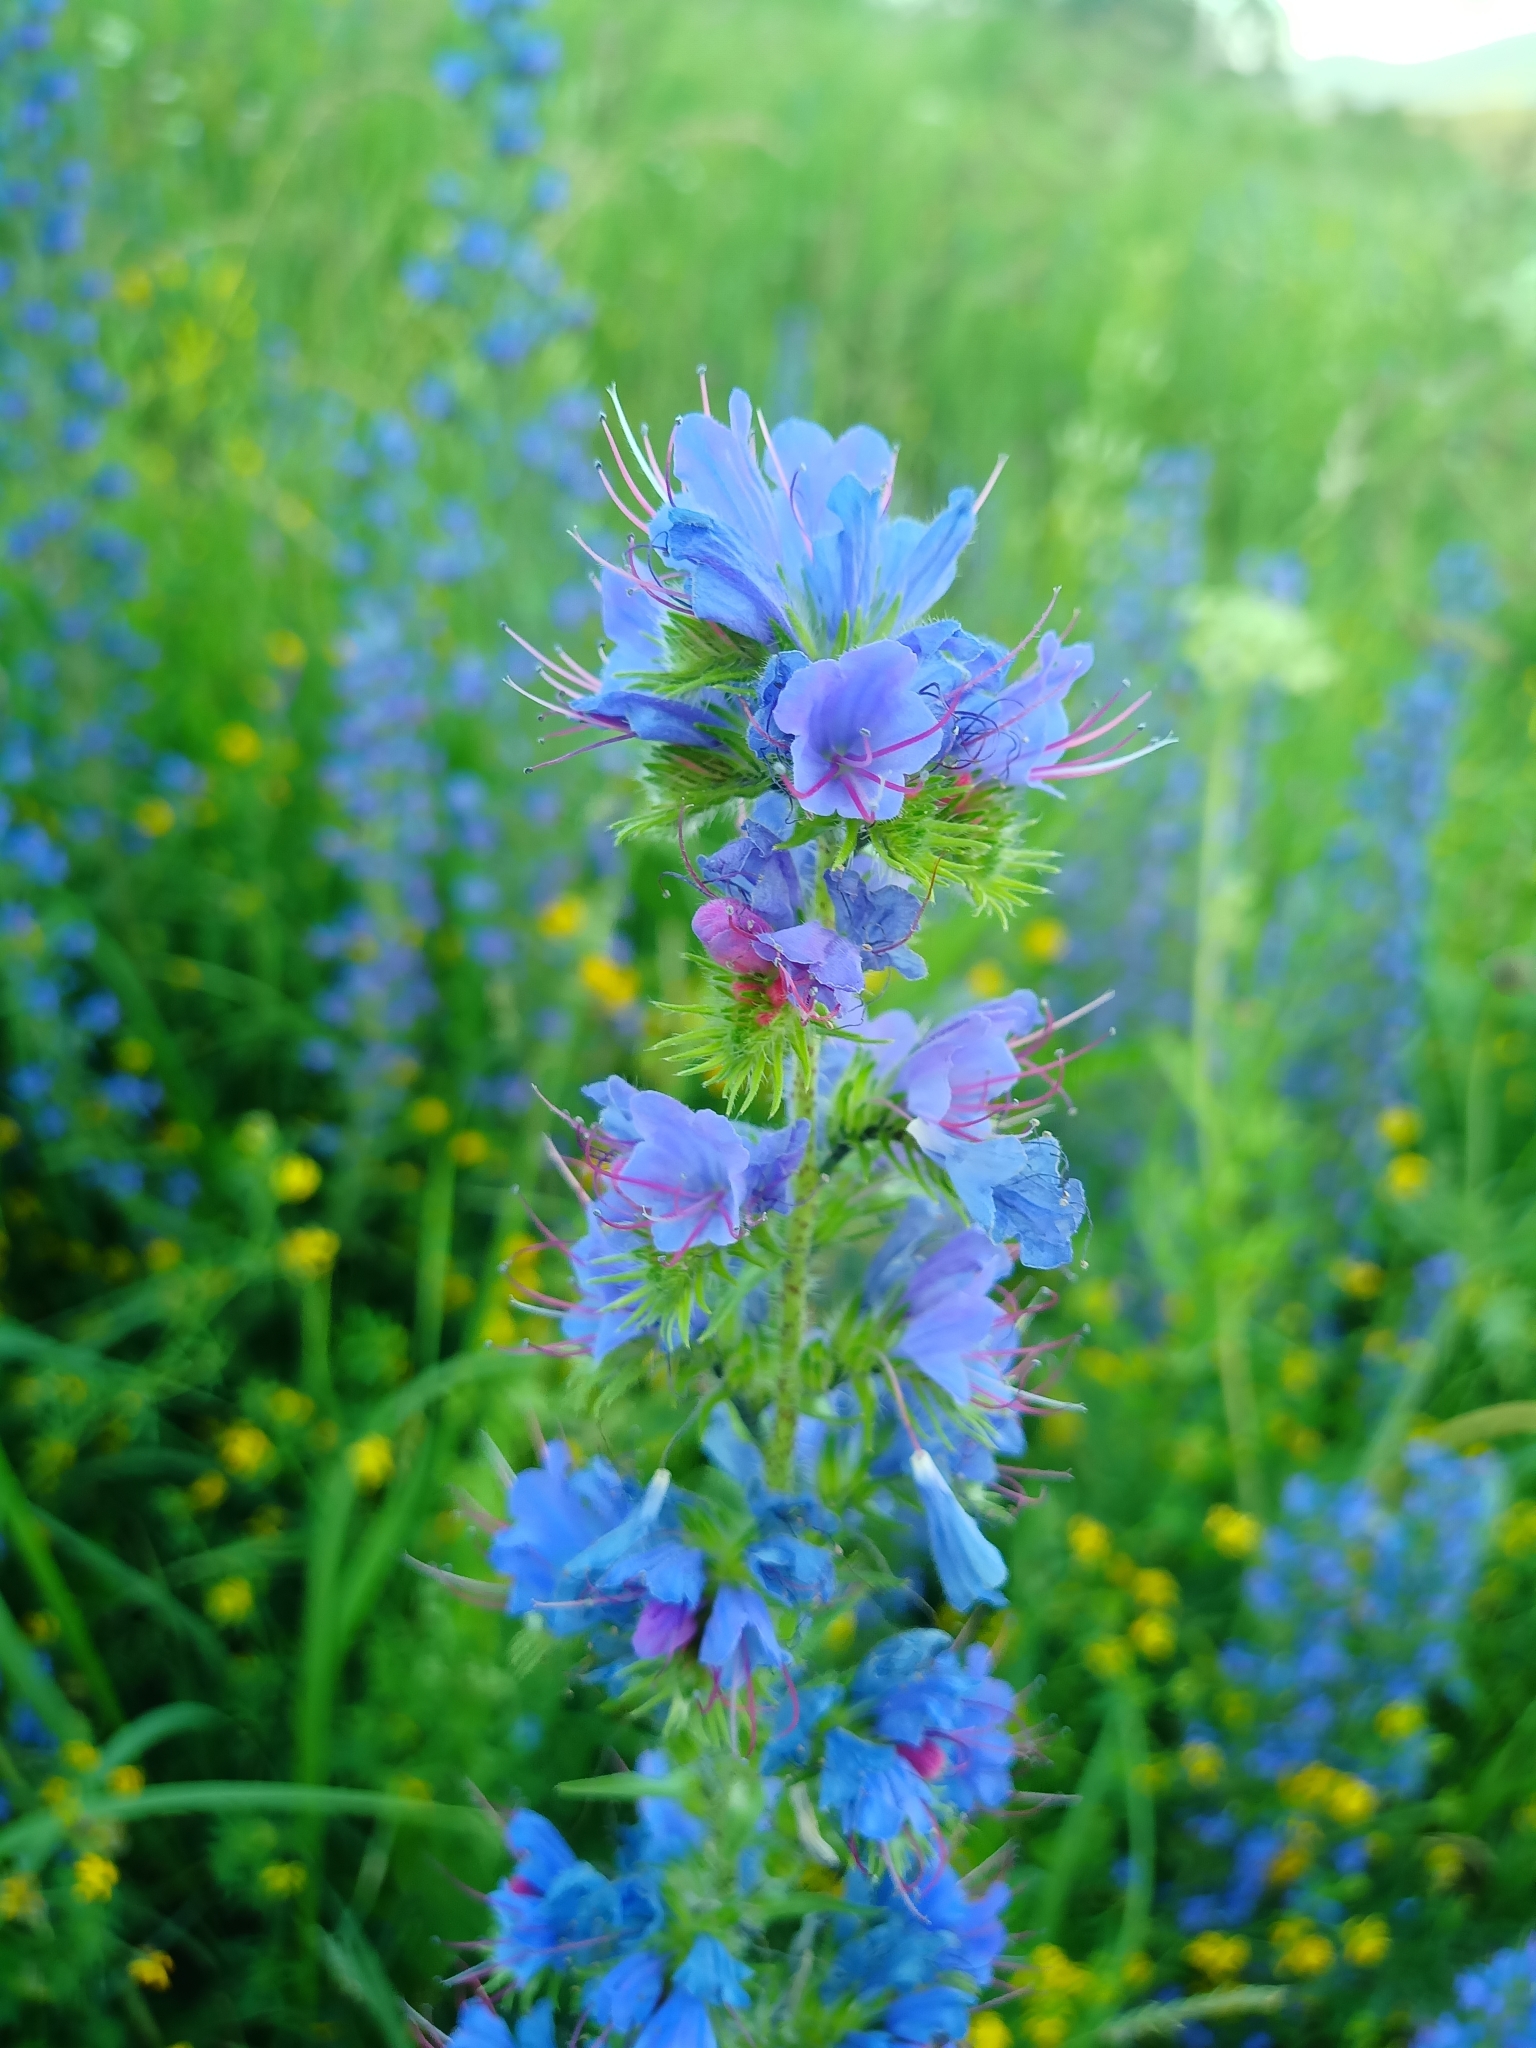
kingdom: Plantae
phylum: Tracheophyta
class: Magnoliopsida
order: Boraginales
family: Boraginaceae
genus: Echium
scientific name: Echium vulgare
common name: Common viper's bugloss
